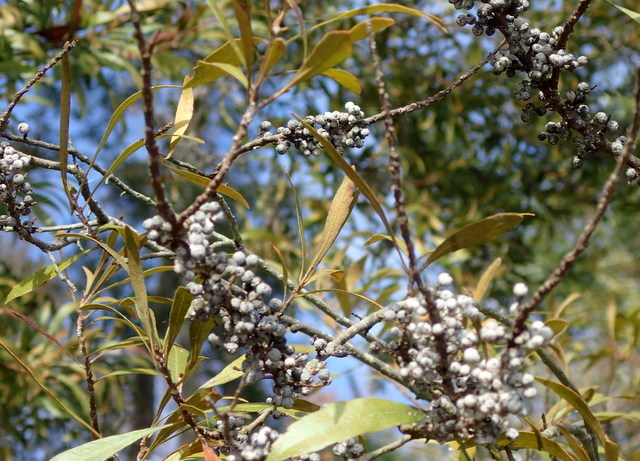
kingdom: Plantae
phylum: Tracheophyta
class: Magnoliopsida
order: Fagales
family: Myricaceae
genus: Morella
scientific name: Morella cerifera
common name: Wax myrtle
